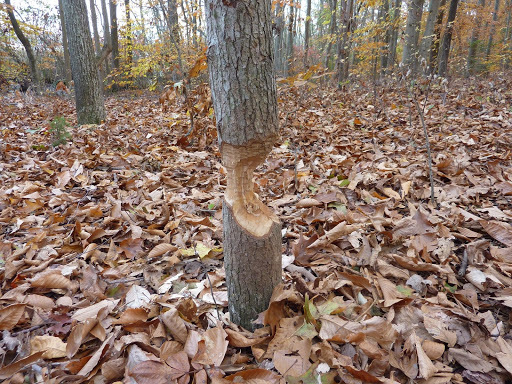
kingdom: Animalia
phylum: Chordata
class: Mammalia
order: Rodentia
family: Castoridae
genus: Castor
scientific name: Castor canadensis
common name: American beaver
